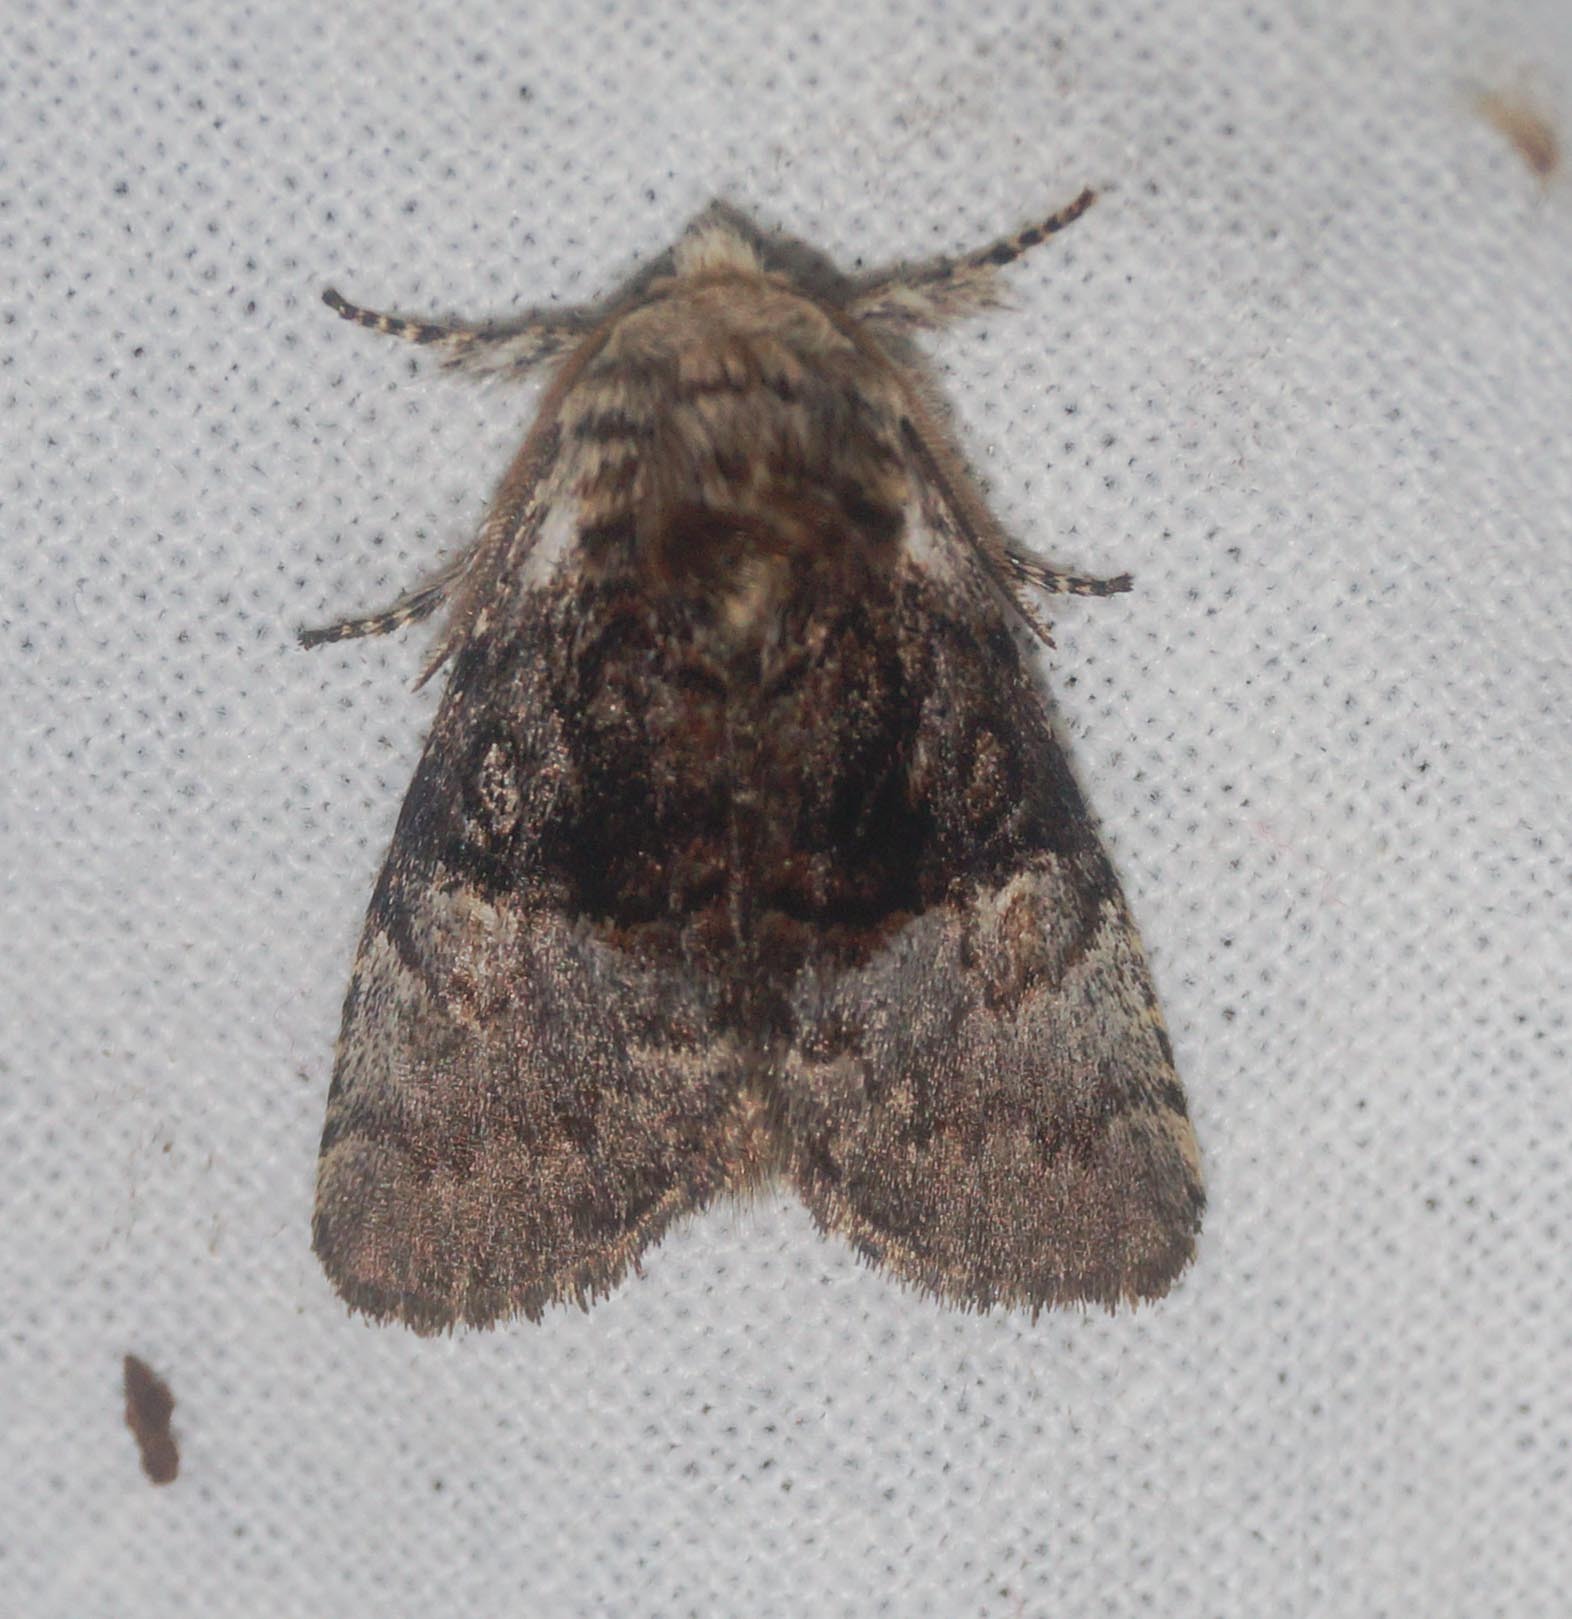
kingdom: Animalia
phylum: Arthropoda
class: Insecta
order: Lepidoptera
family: Noctuidae
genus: Colocasia
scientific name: Colocasia coryli
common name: Nut-tree tussock
